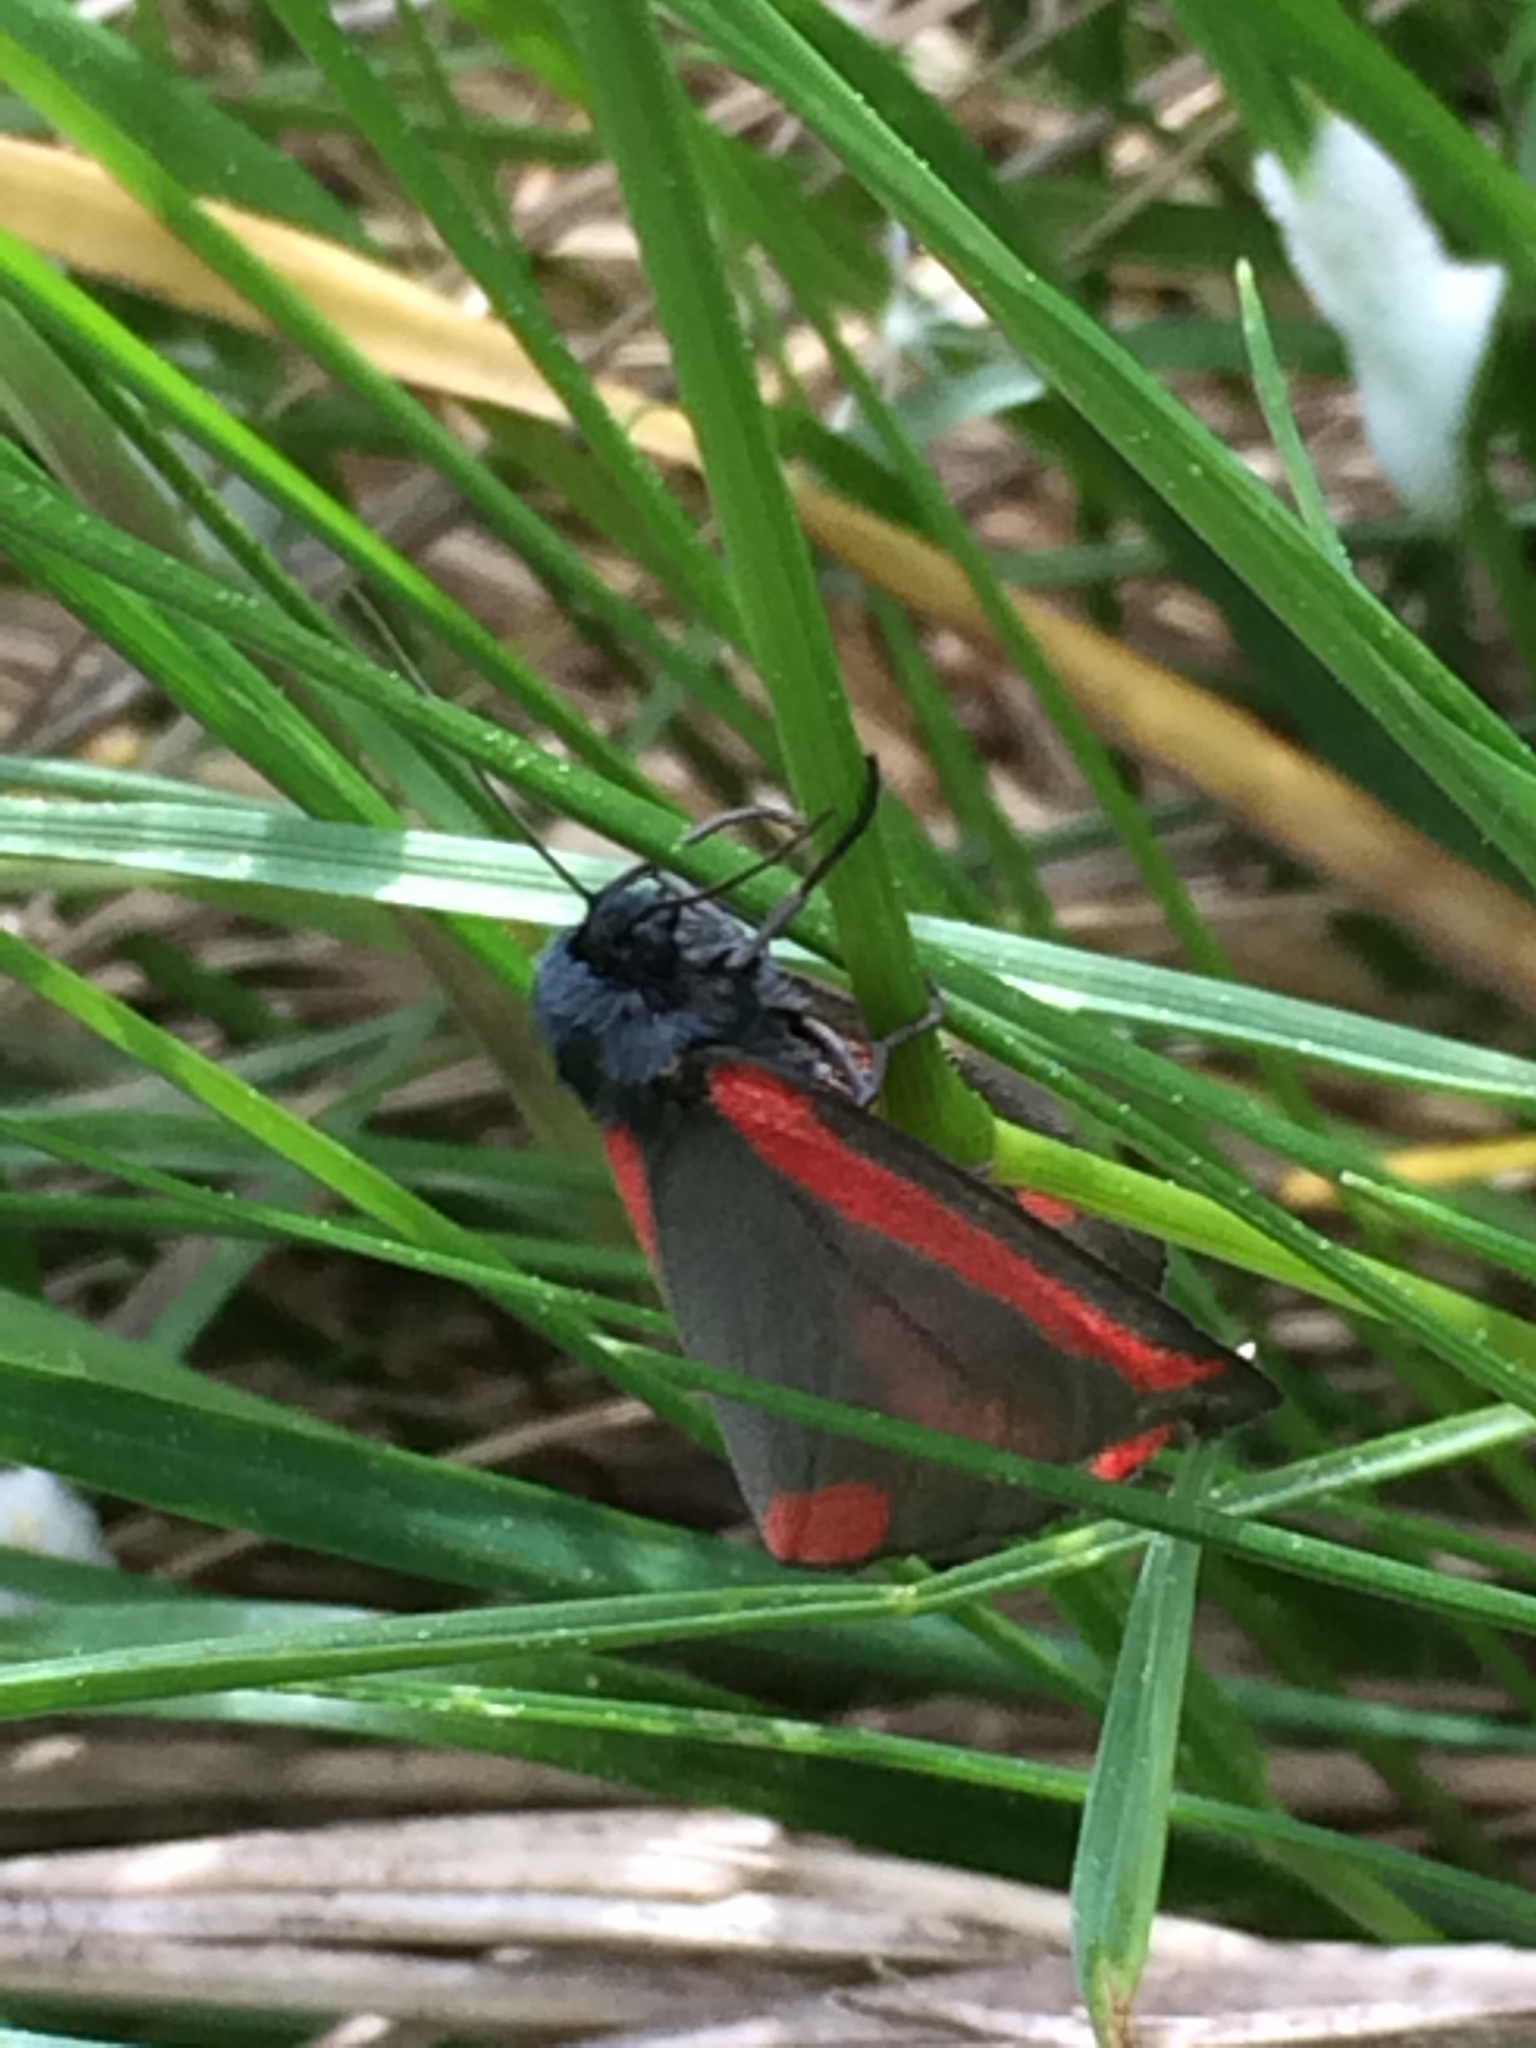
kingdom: Animalia
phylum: Arthropoda
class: Insecta
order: Lepidoptera
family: Erebidae
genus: Tyria
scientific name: Tyria jacobaeae
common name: Cinnabar
